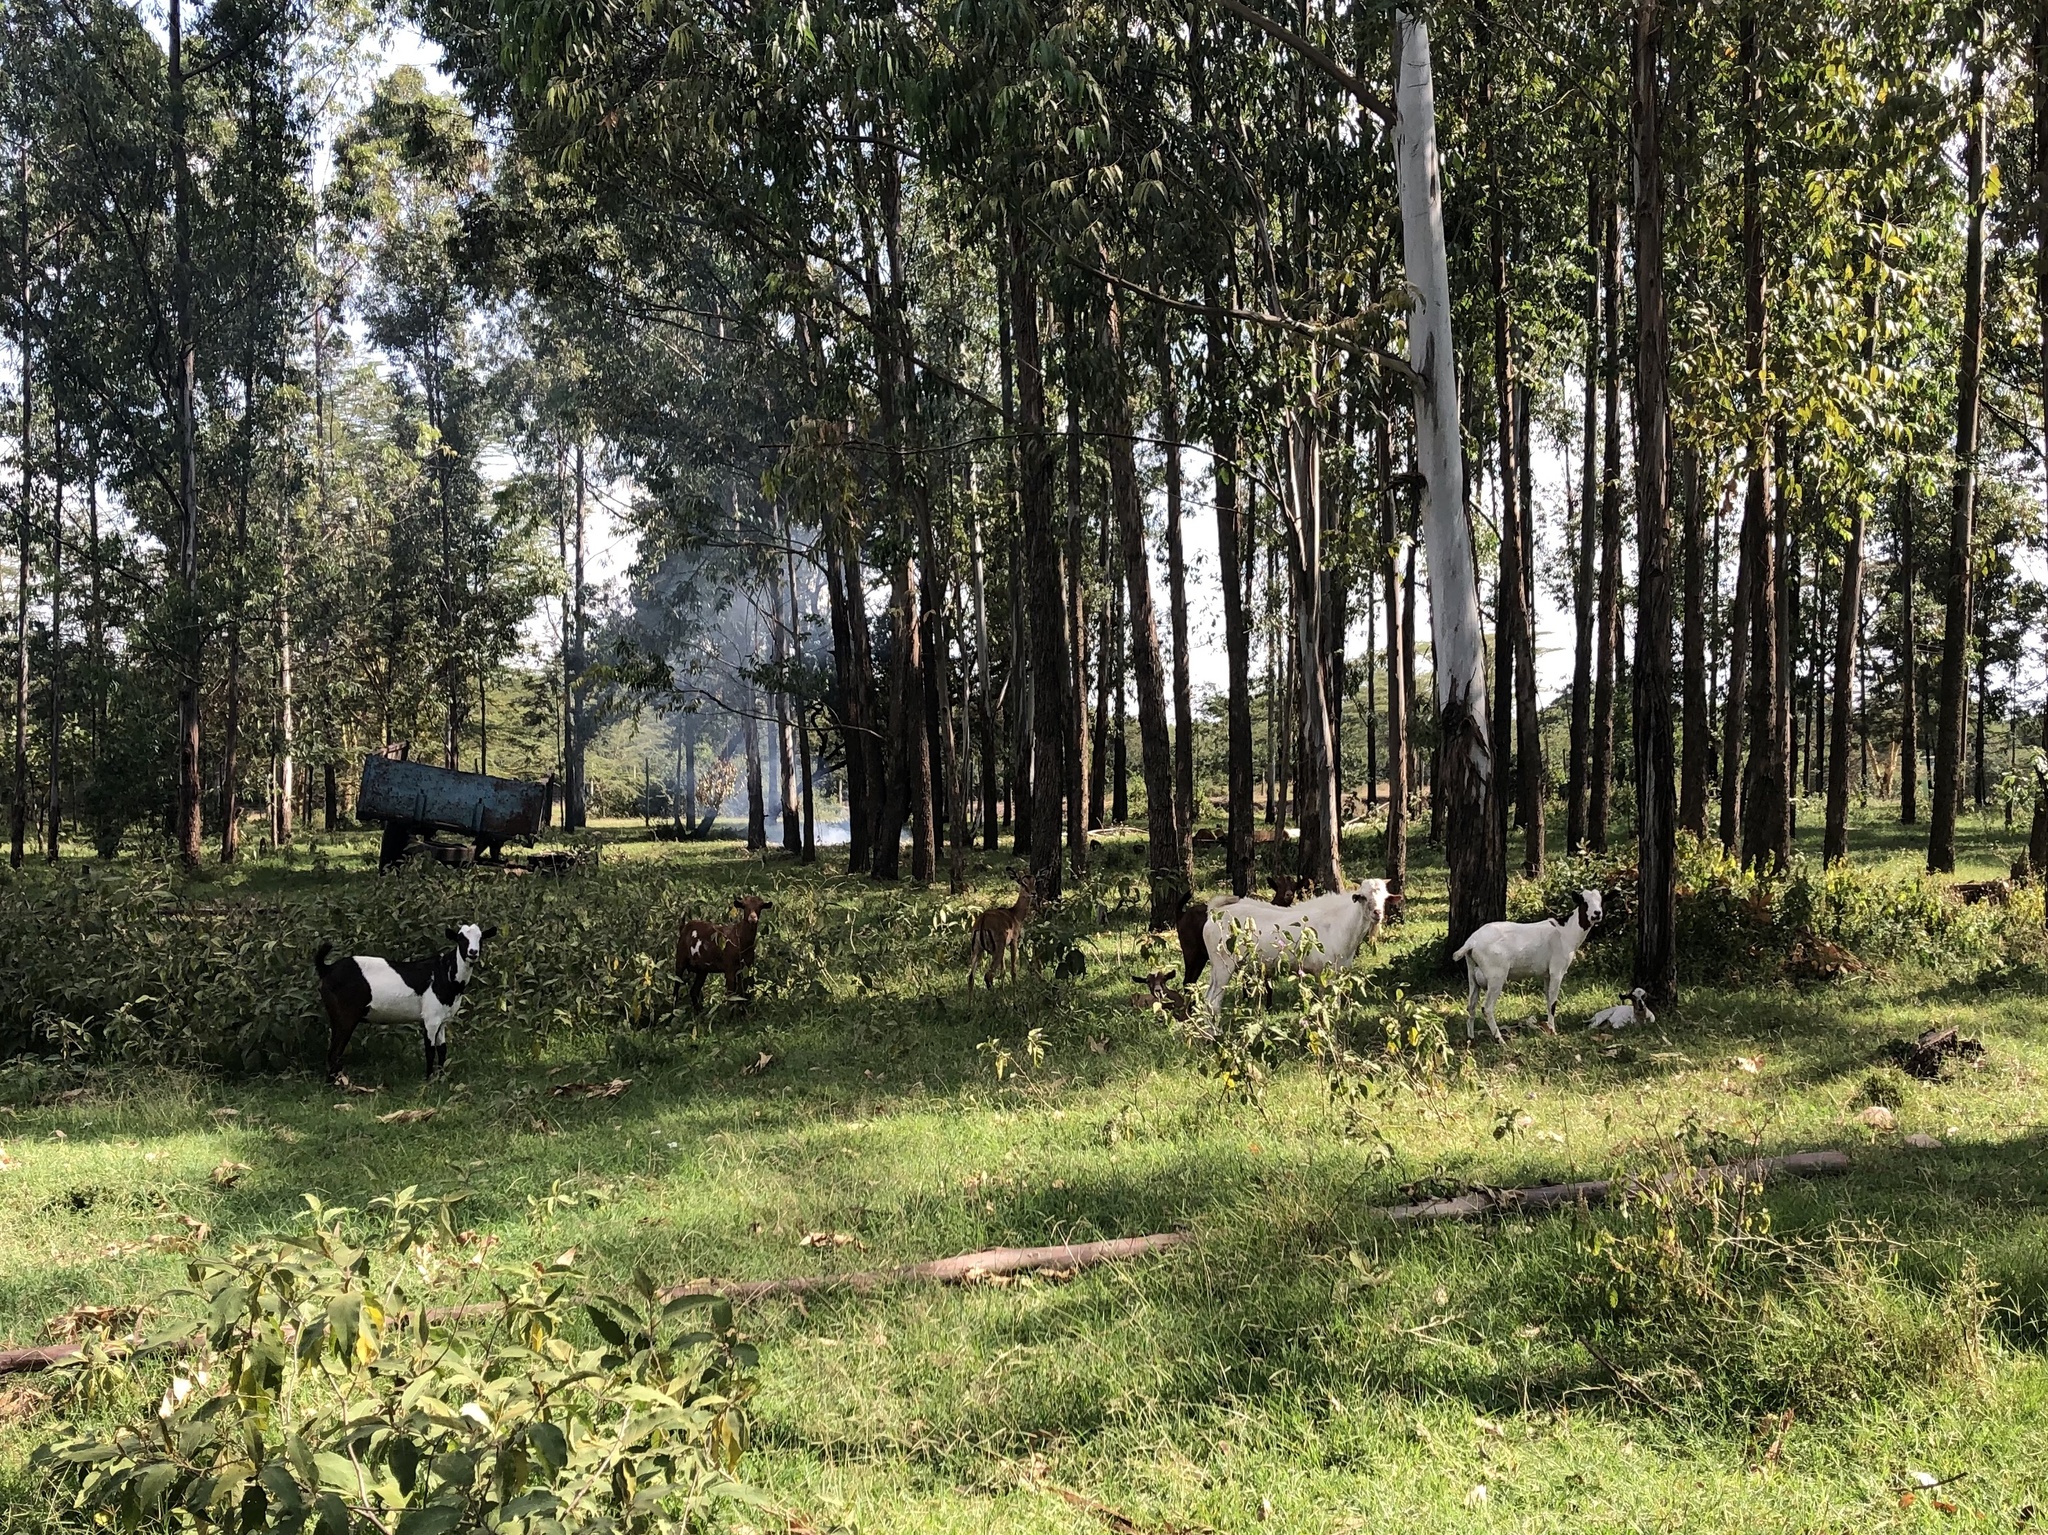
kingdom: Animalia
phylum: Chordata
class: Mammalia
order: Artiodactyla
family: Bovidae
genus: Aepyceros
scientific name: Aepyceros melampus
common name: Impala
